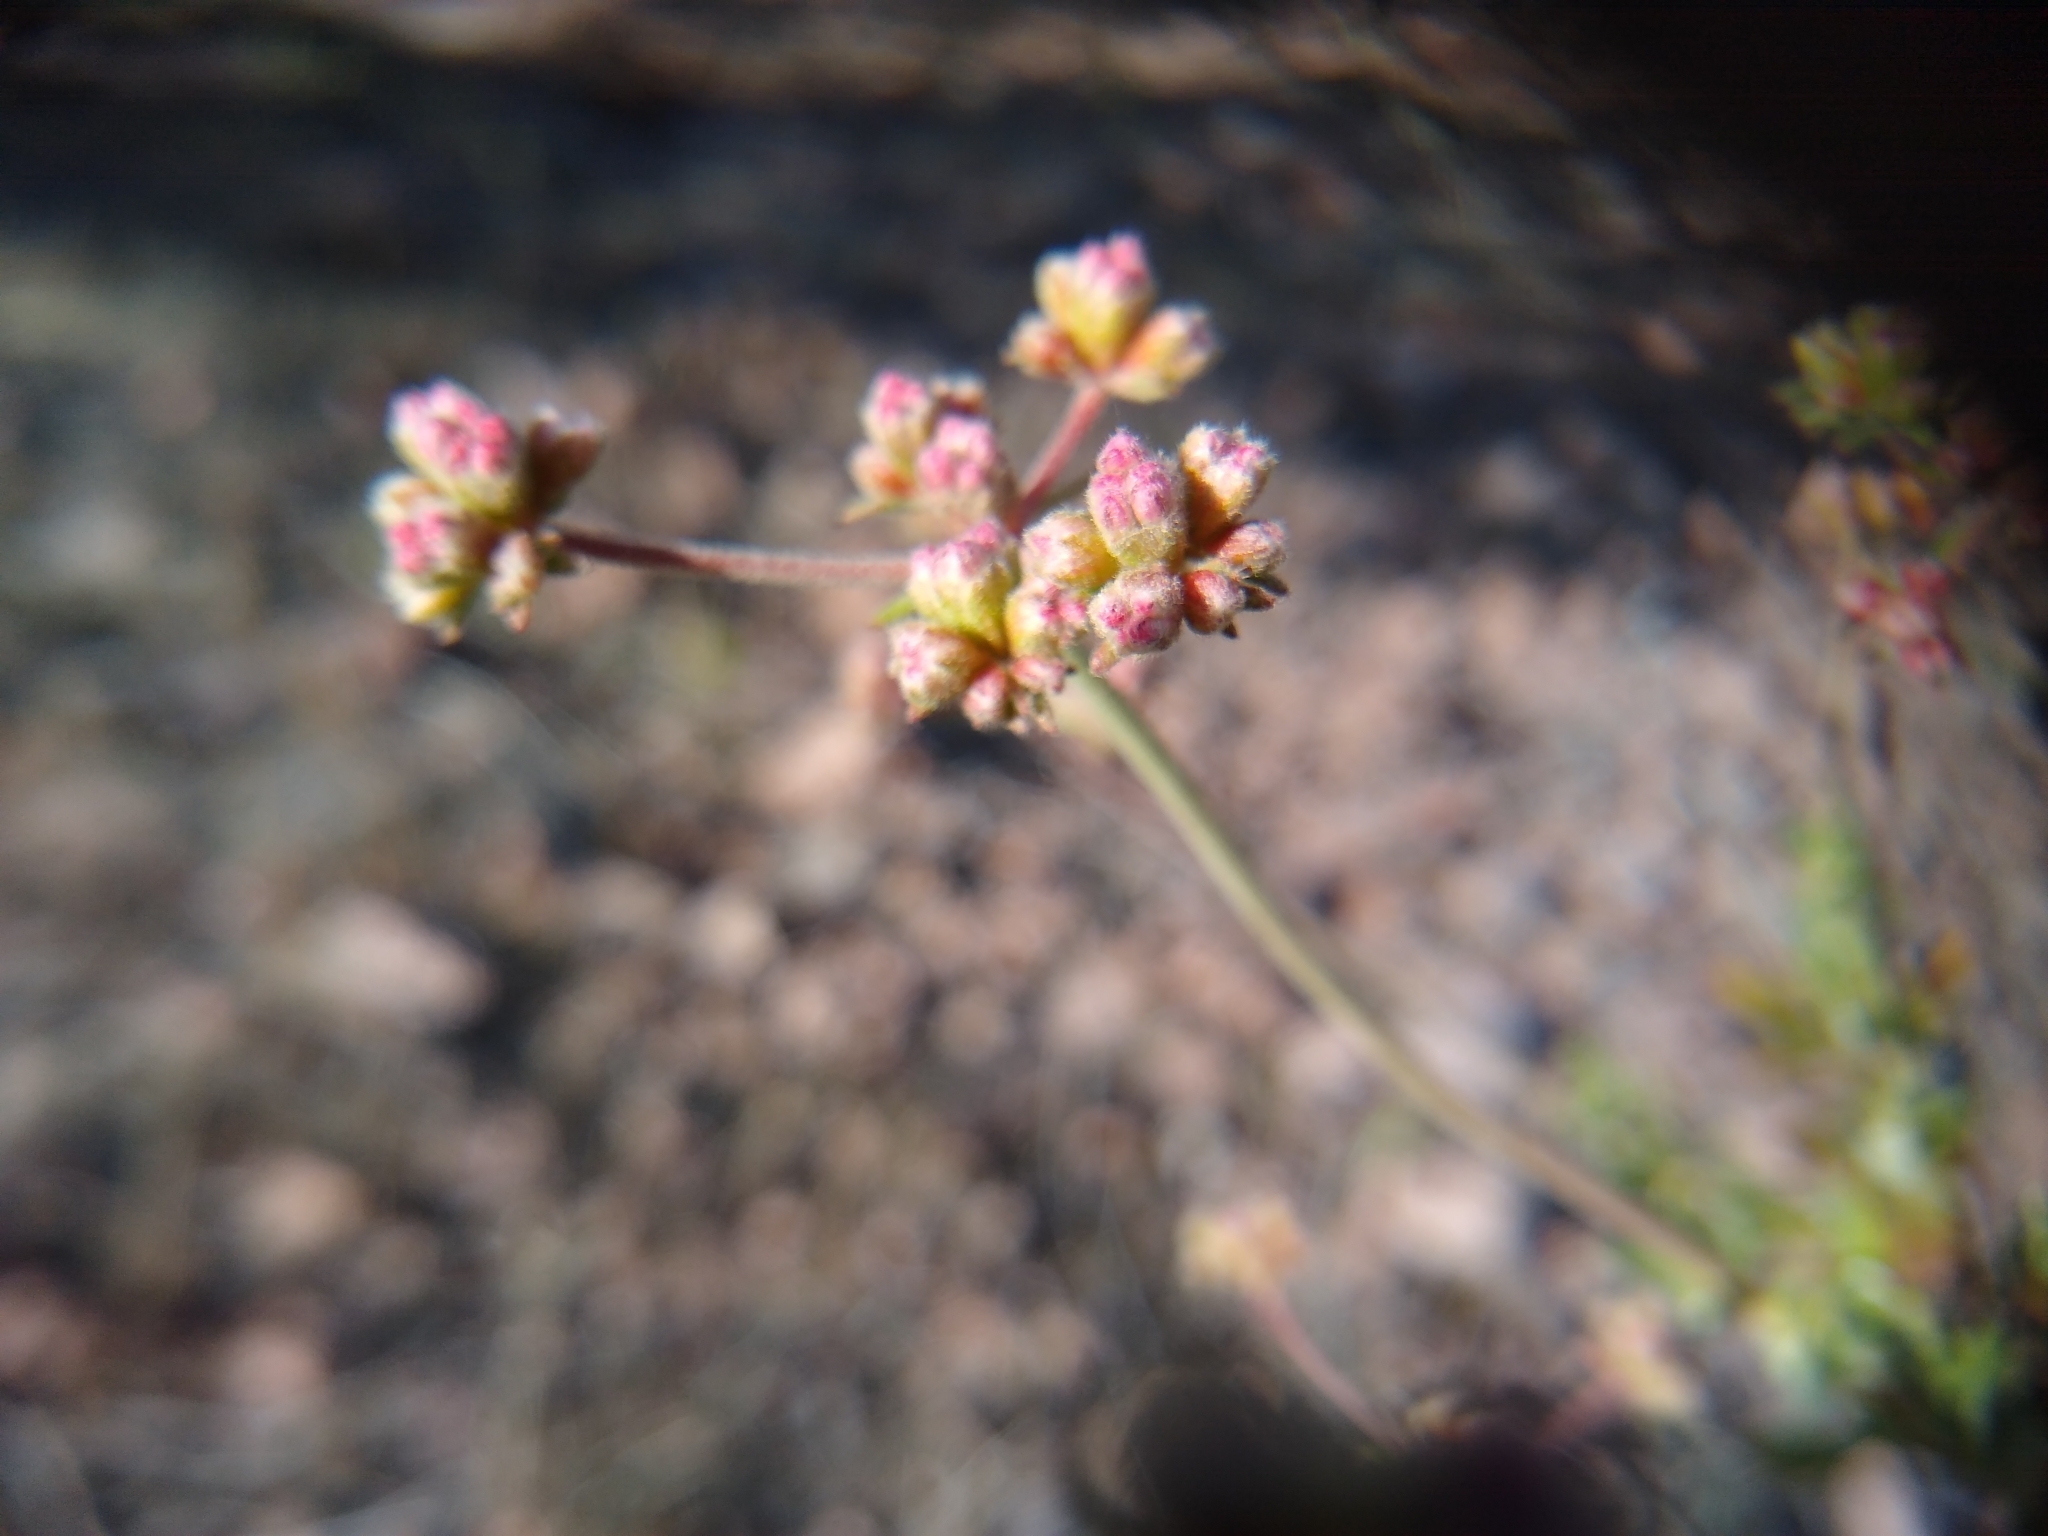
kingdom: Plantae
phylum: Tracheophyta
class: Magnoliopsida
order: Caryophyllales
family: Polygonaceae
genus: Eriogonum
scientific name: Eriogonum fasciculatum
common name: California wild buckwheat
